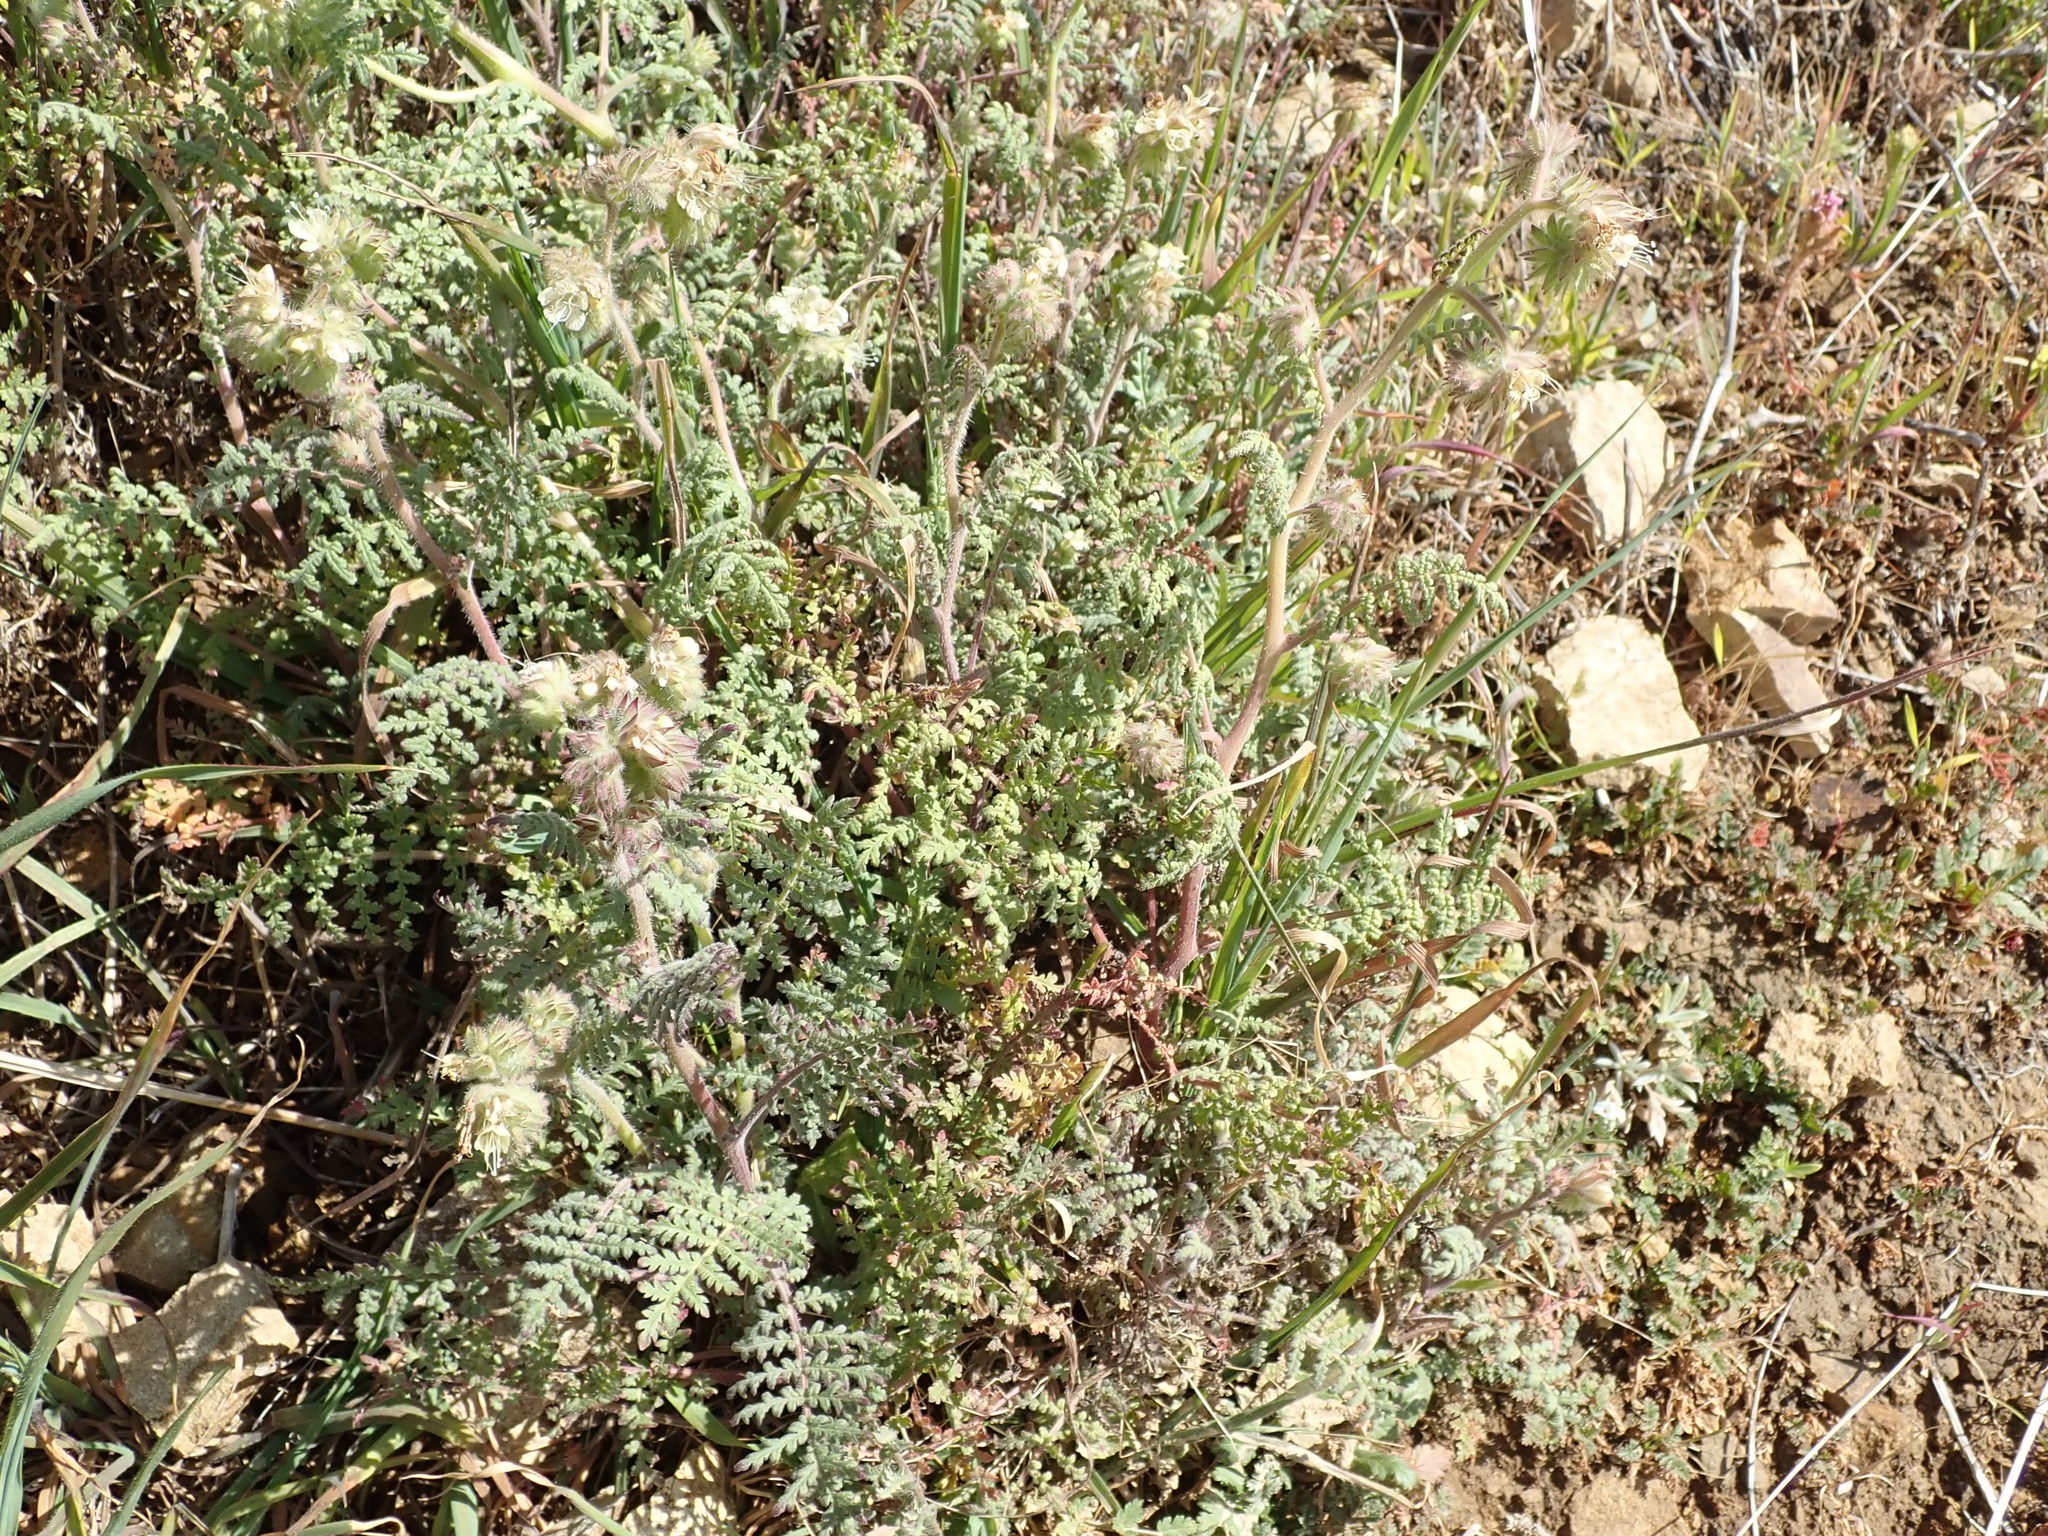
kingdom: Plantae
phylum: Tracheophyta
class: Magnoliopsida
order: Boraginales
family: Hydrophyllaceae
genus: Phacelia
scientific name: Phacelia distans
